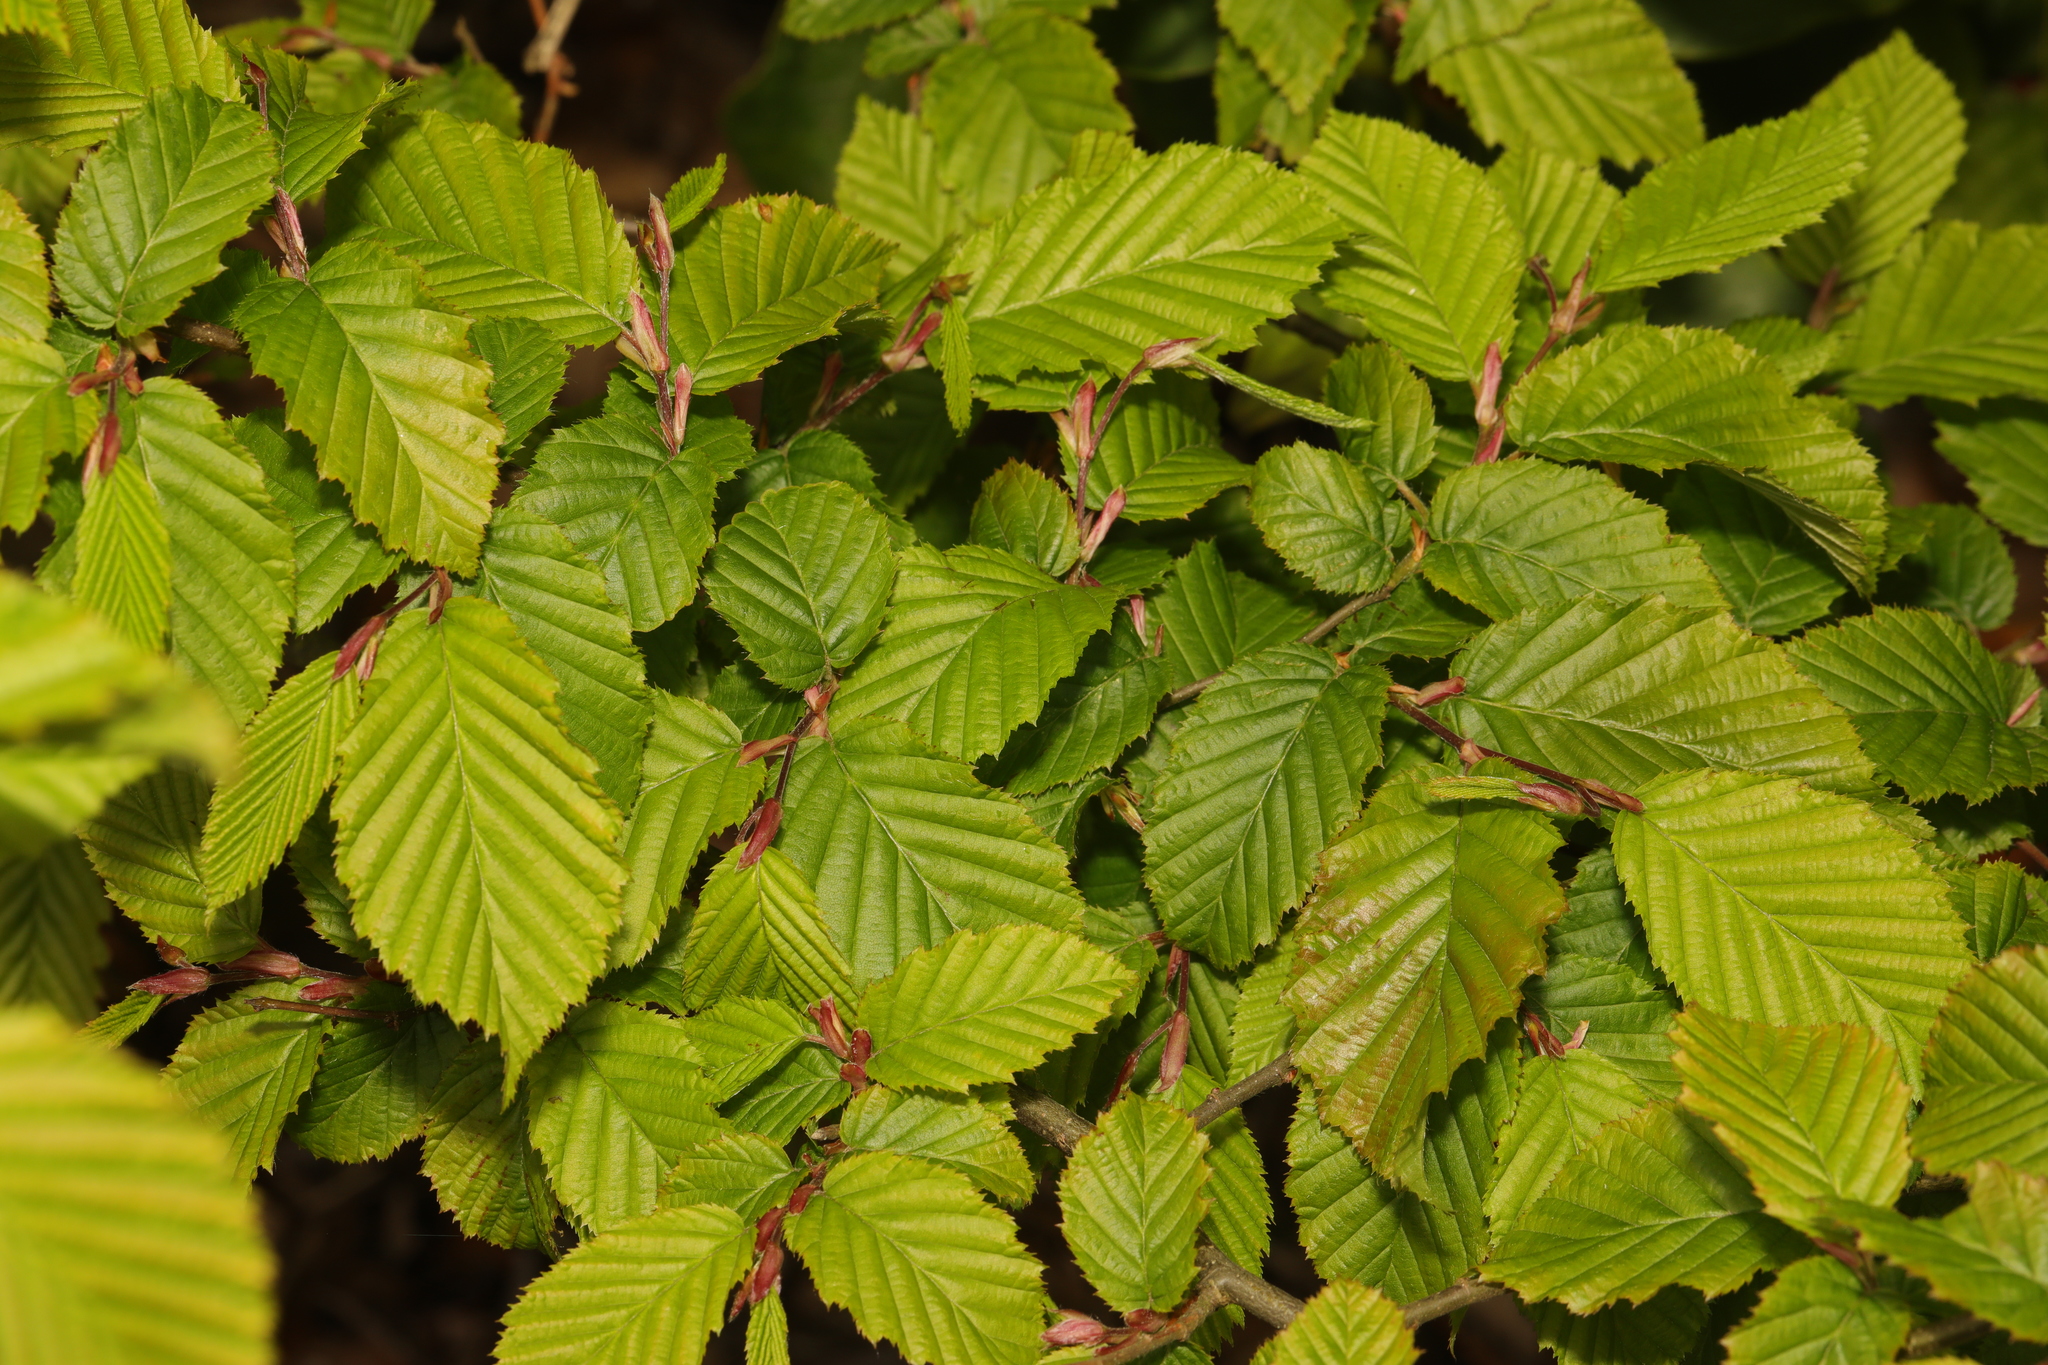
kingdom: Plantae
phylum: Tracheophyta
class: Magnoliopsida
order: Fagales
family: Betulaceae
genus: Carpinus
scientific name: Carpinus betulus
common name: Hornbeam
